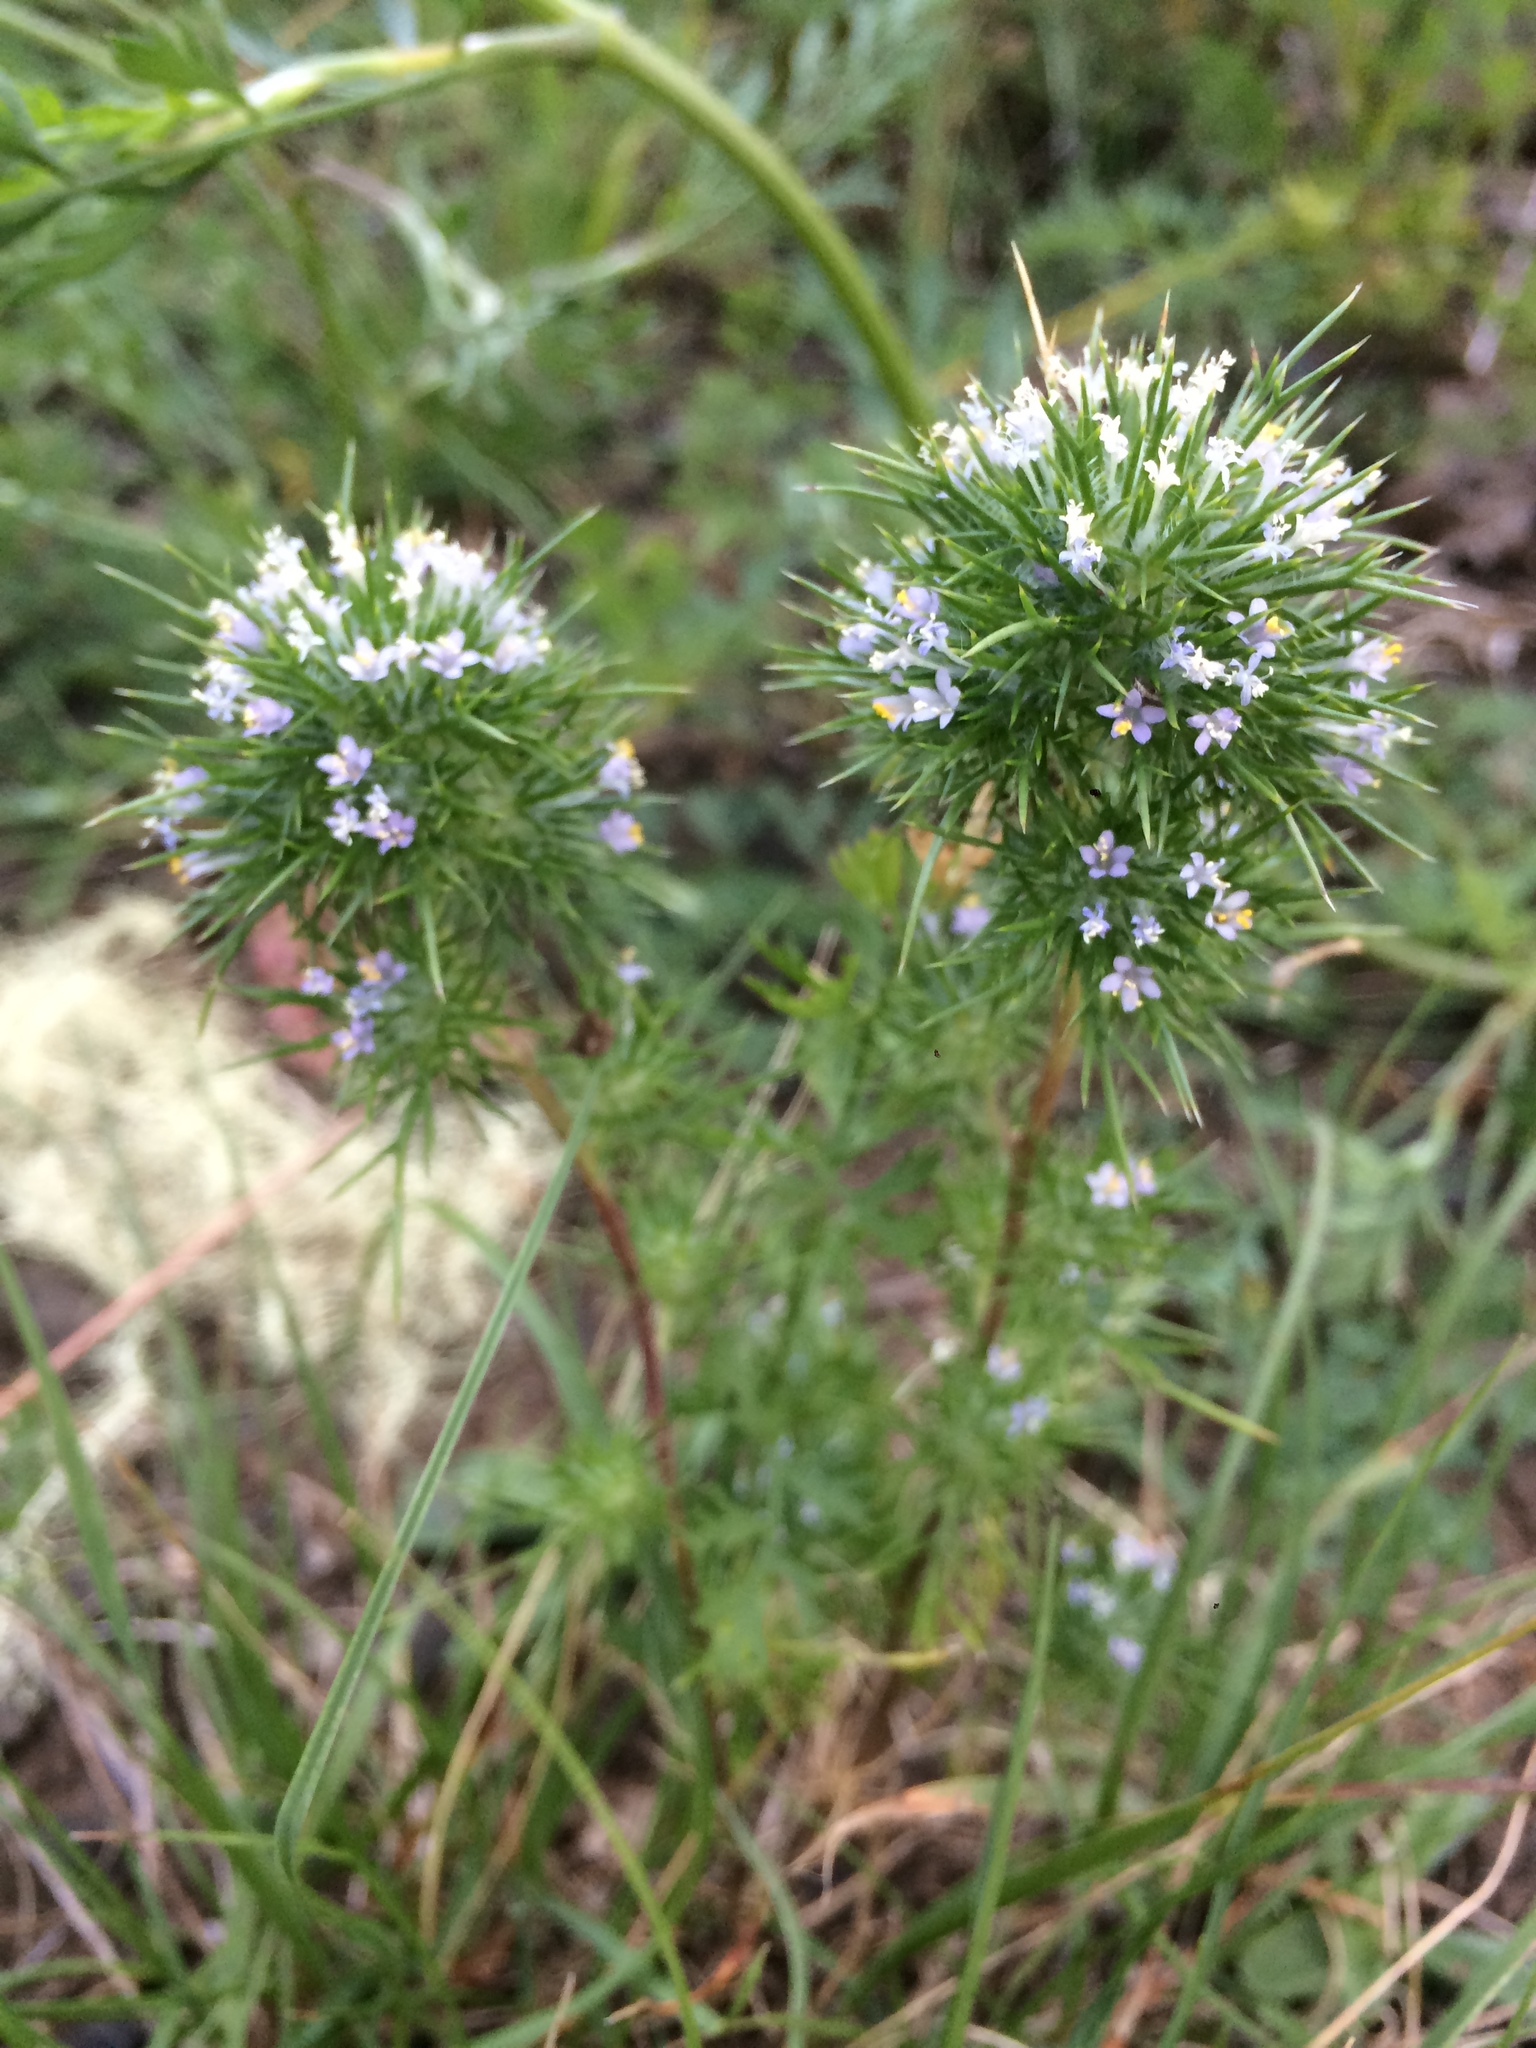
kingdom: Plantae
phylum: Tracheophyta
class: Magnoliopsida
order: Ericales
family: Polemoniaceae
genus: Navarretia
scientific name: Navarretia intertexta
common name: Needle-leaved navarretia
